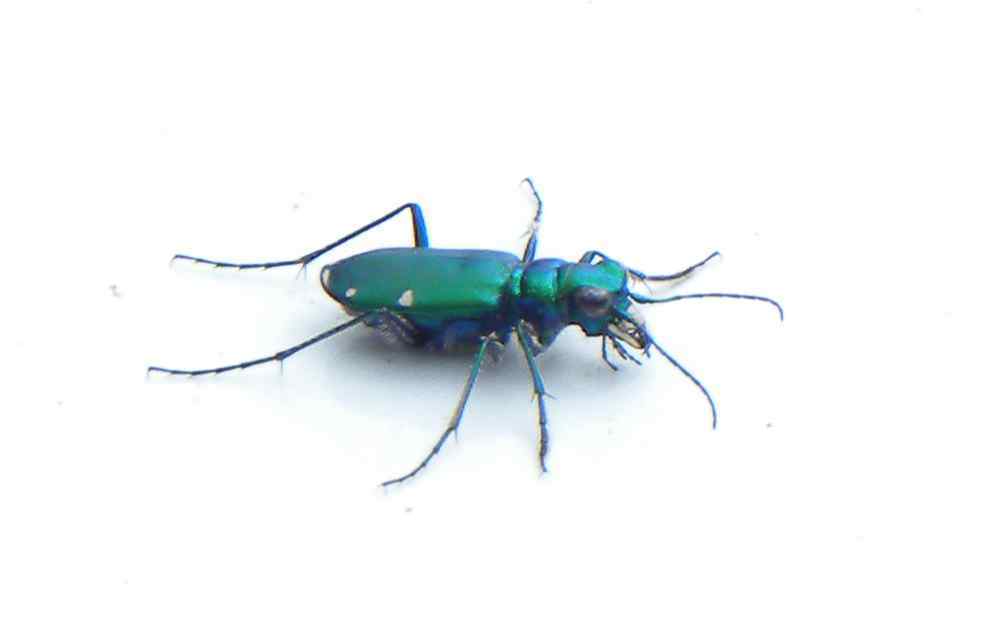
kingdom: Animalia
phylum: Arthropoda
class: Insecta
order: Coleoptera
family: Carabidae
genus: Cicindela
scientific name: Cicindela sexguttata
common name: Six-spotted tiger beetle
